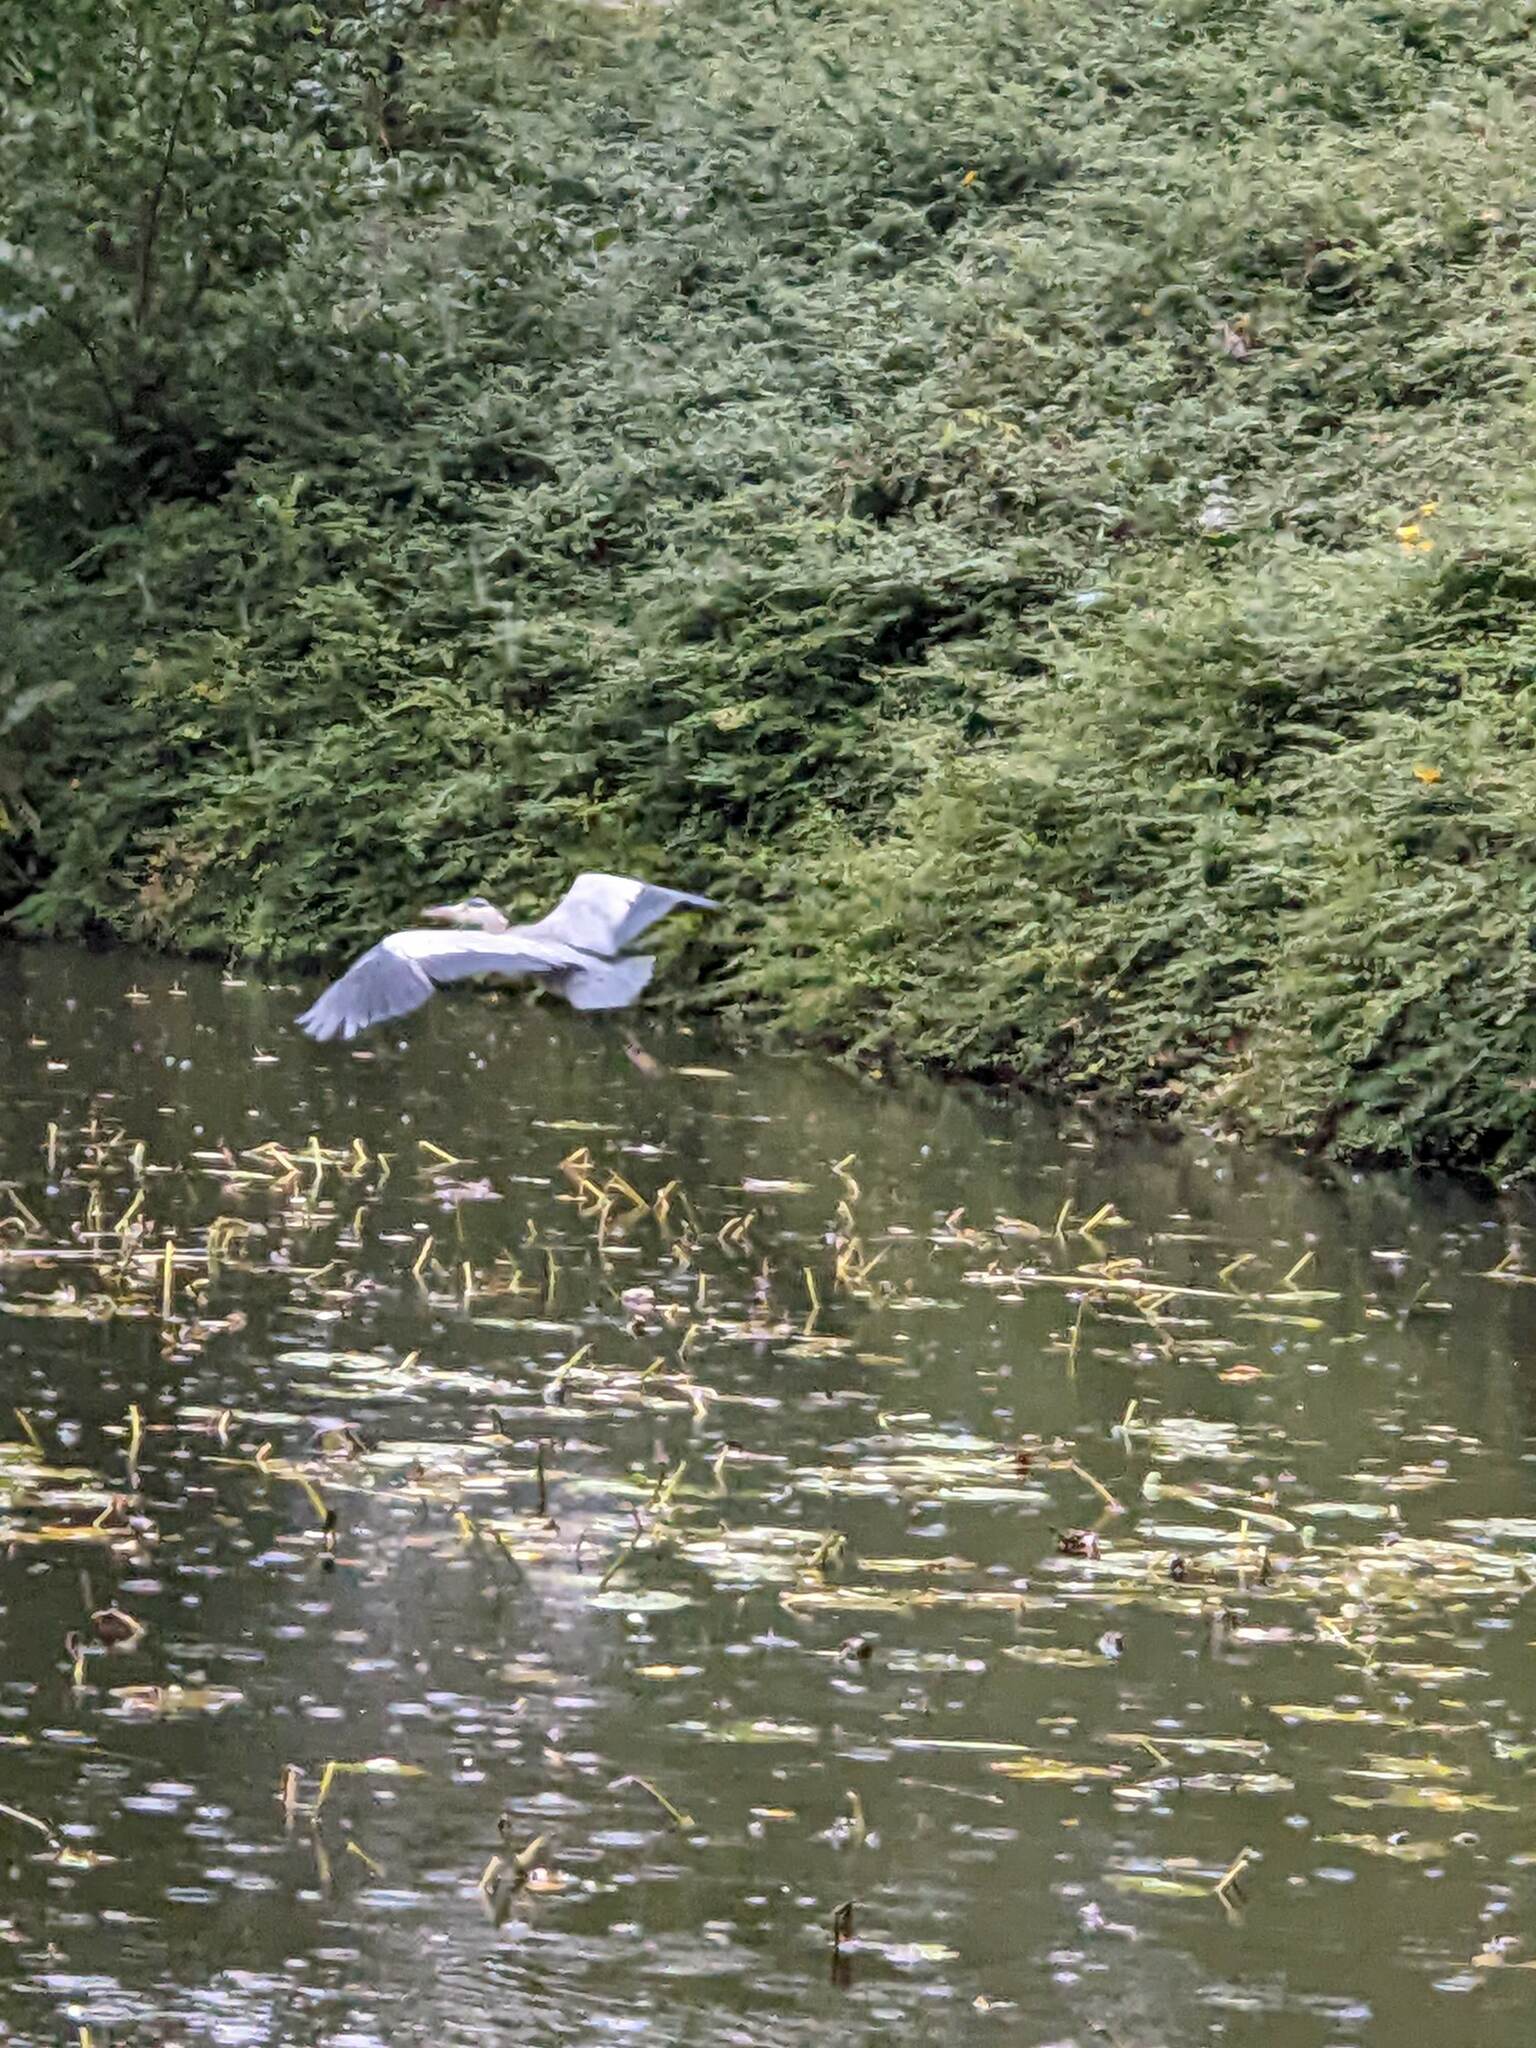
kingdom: Animalia
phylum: Chordata
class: Aves
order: Pelecaniformes
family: Ardeidae
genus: Ardea
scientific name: Ardea cinerea
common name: Grey heron
